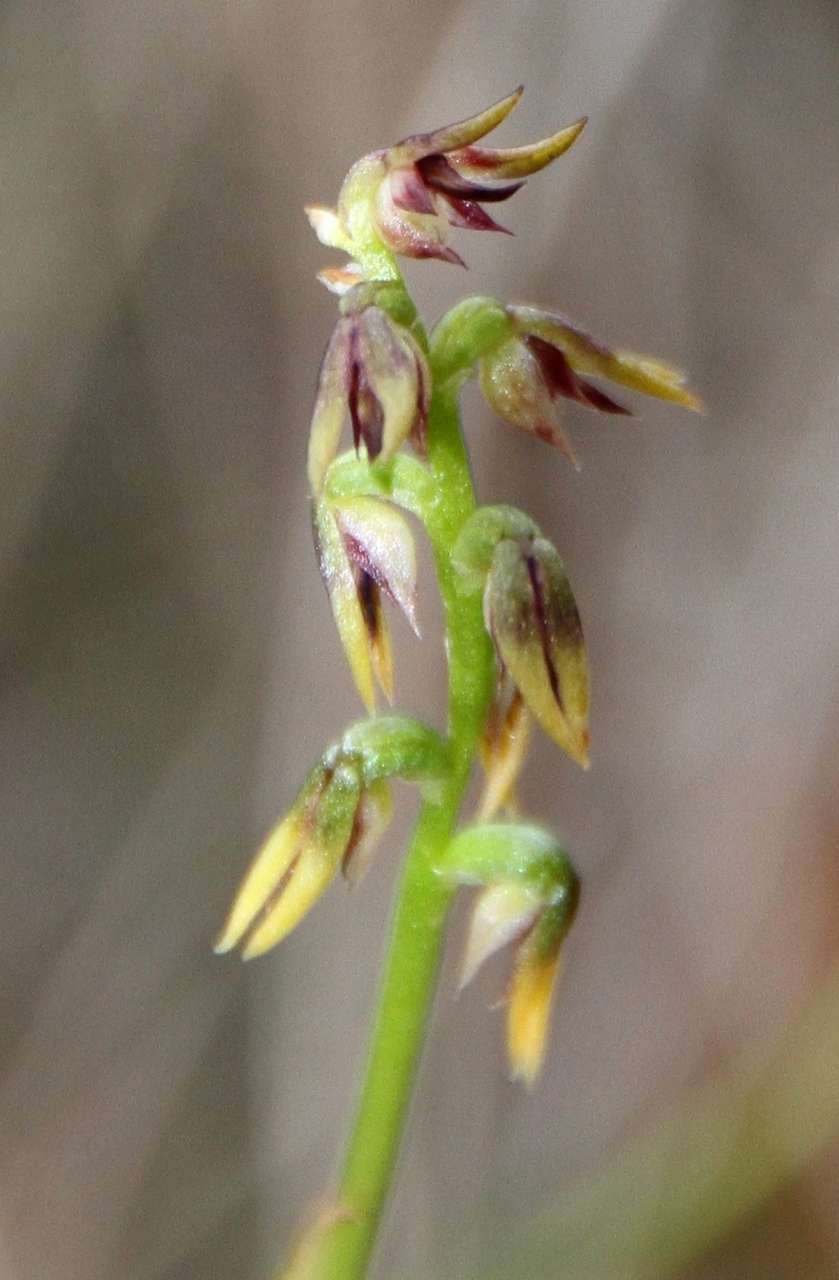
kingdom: Plantae
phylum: Tracheophyta
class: Liliopsida
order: Asparagales
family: Orchidaceae
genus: Genoplesium
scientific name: Genoplesium despectans
